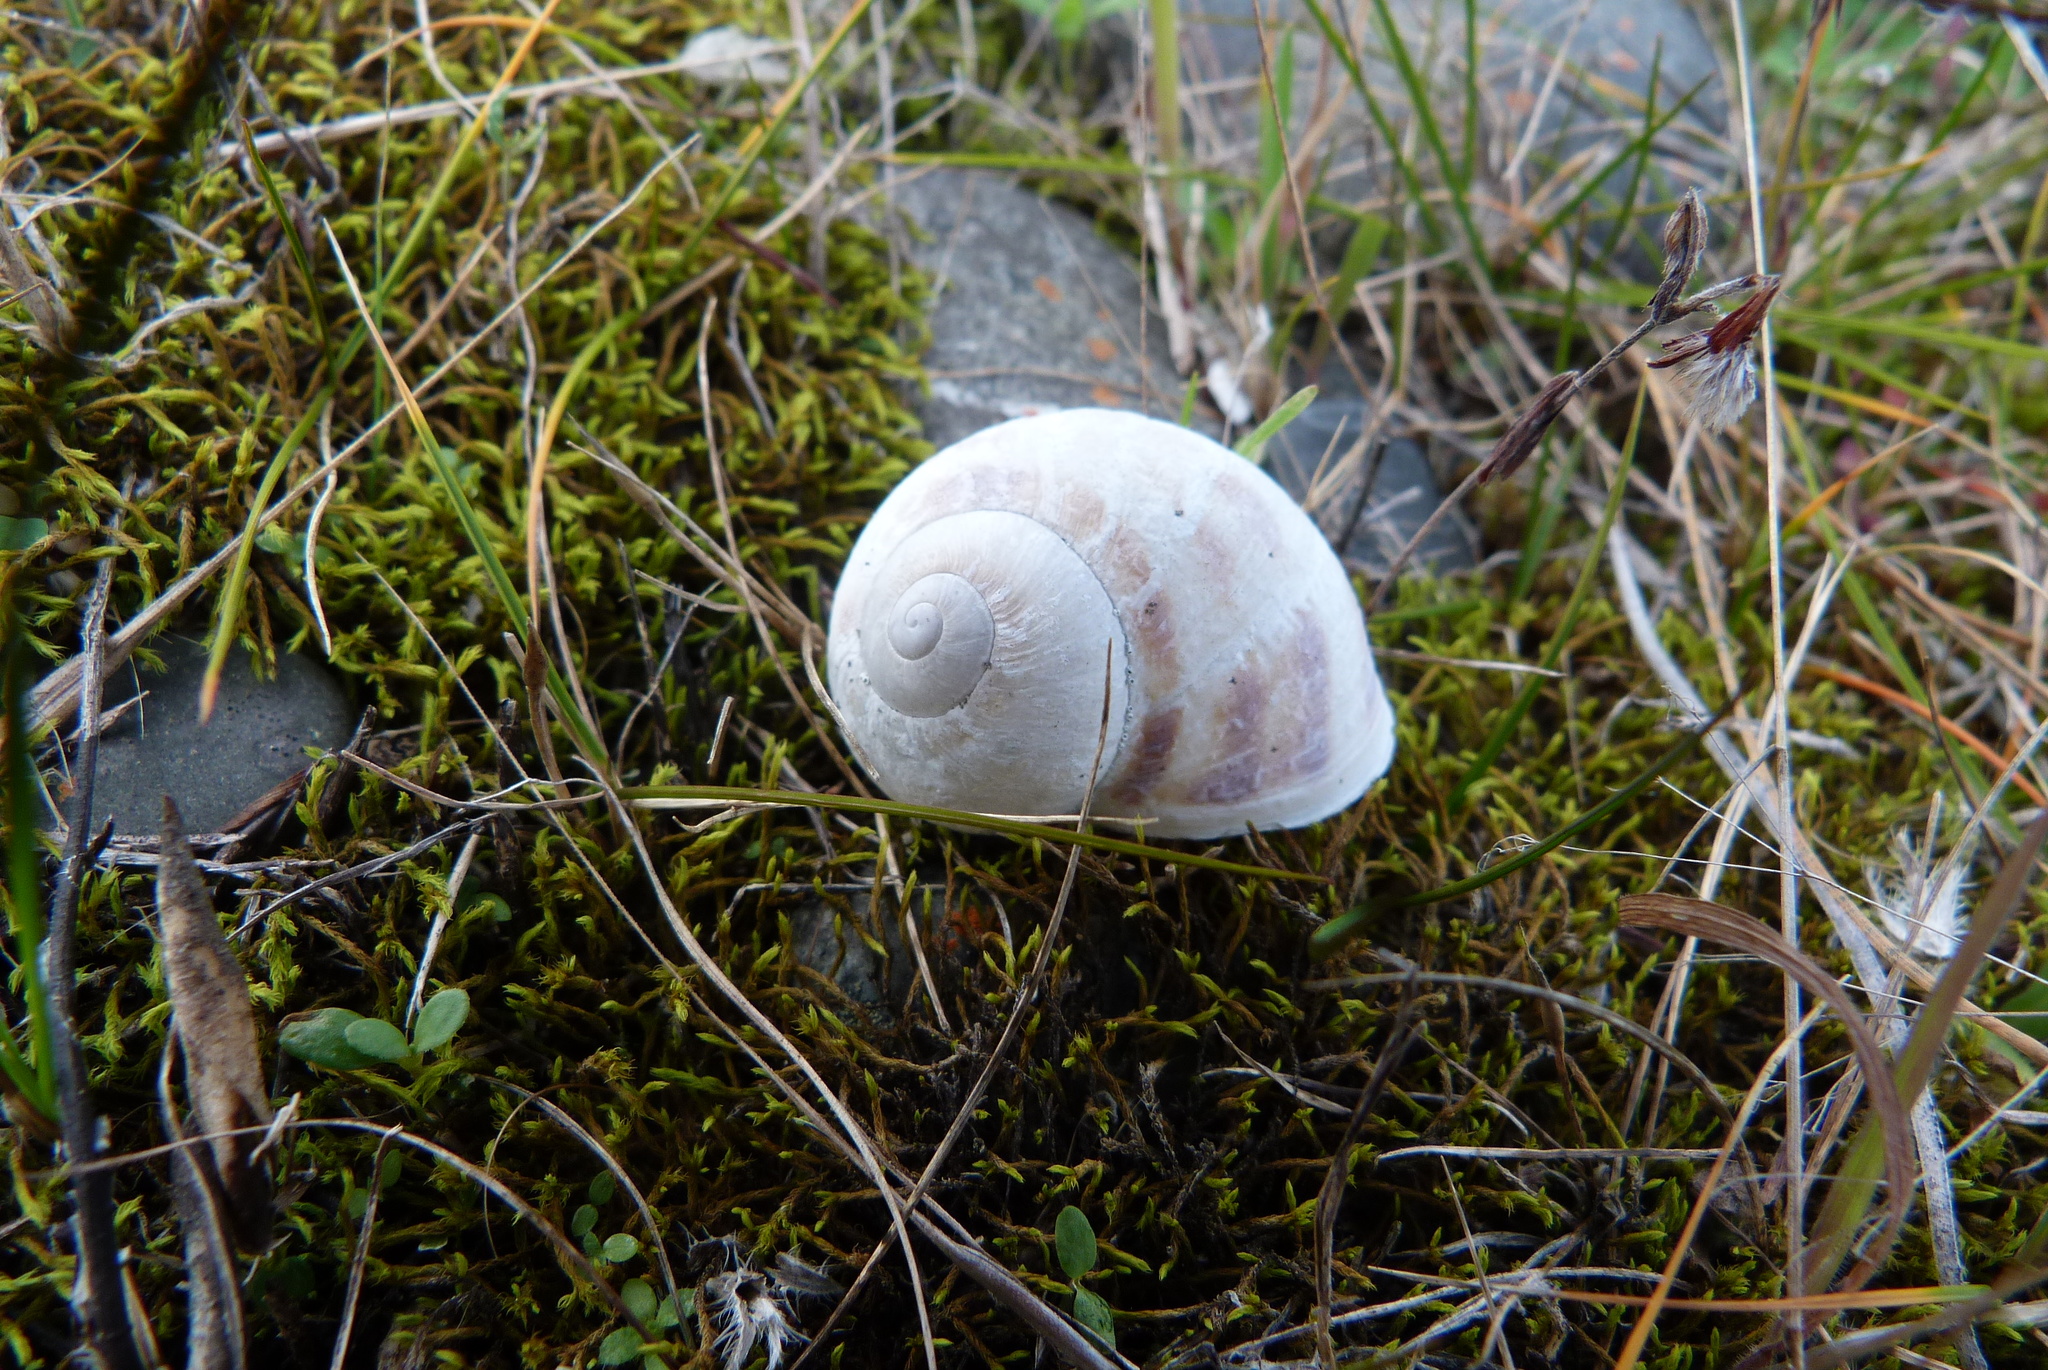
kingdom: Animalia
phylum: Mollusca
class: Gastropoda
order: Stylommatophora
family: Helicidae
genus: Cornu
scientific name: Cornu aspersum
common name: Brown garden snail
